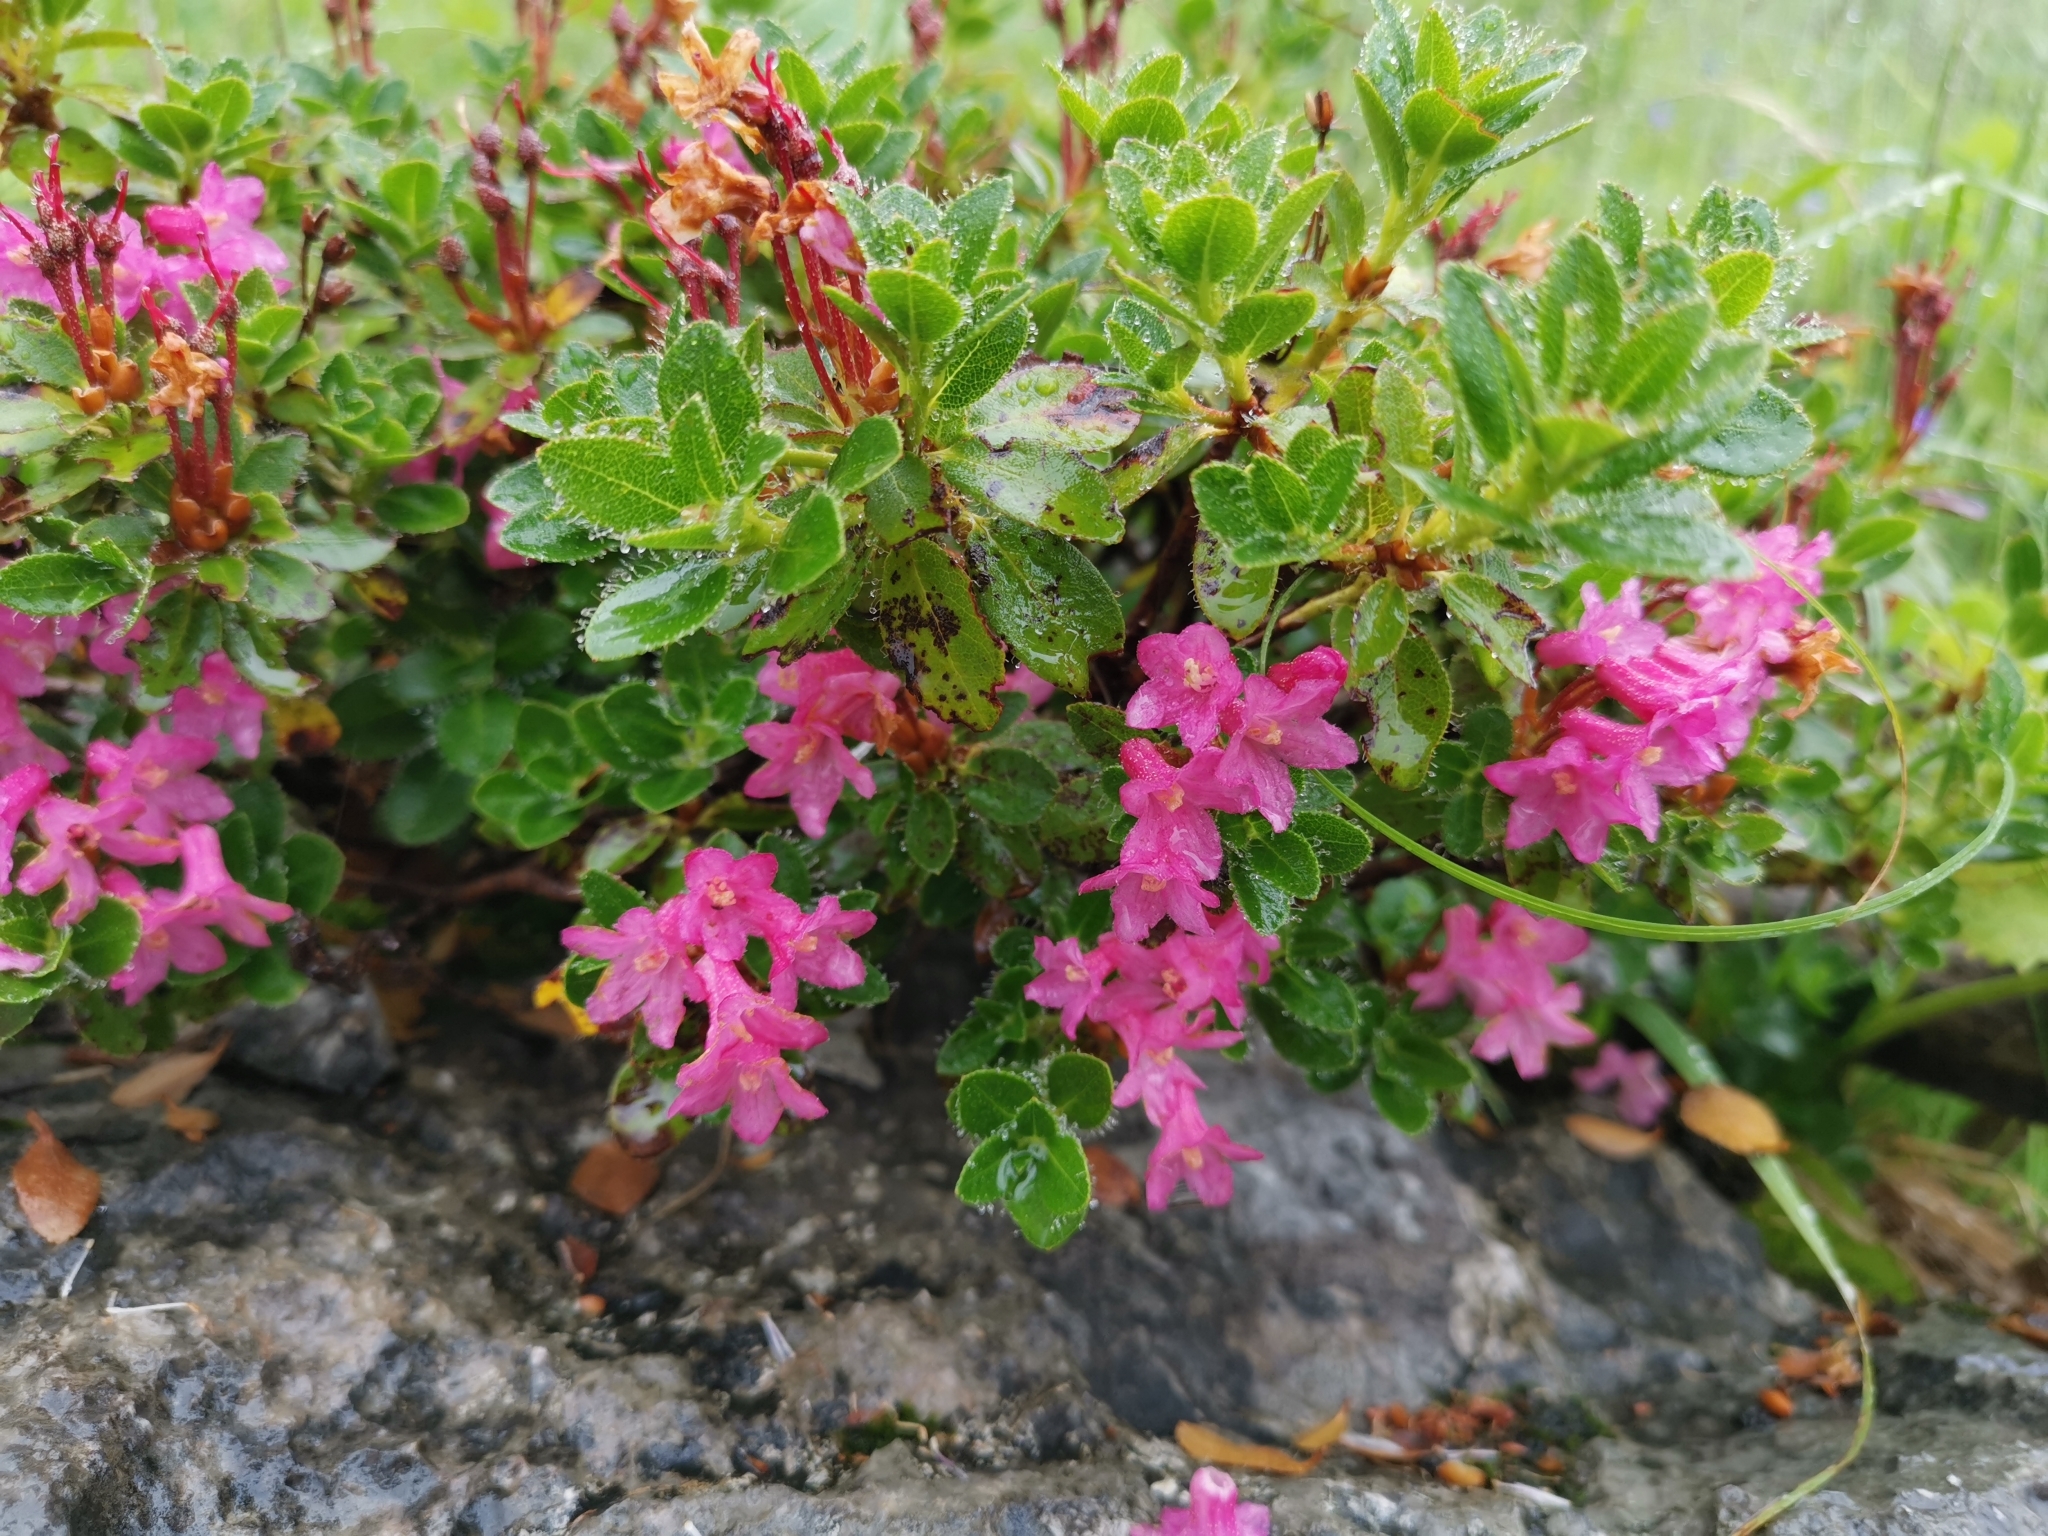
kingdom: Plantae
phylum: Tracheophyta
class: Magnoliopsida
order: Ericales
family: Ericaceae
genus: Rhododendron
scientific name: Rhododendron hirsutum
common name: Hairy alpenrose
